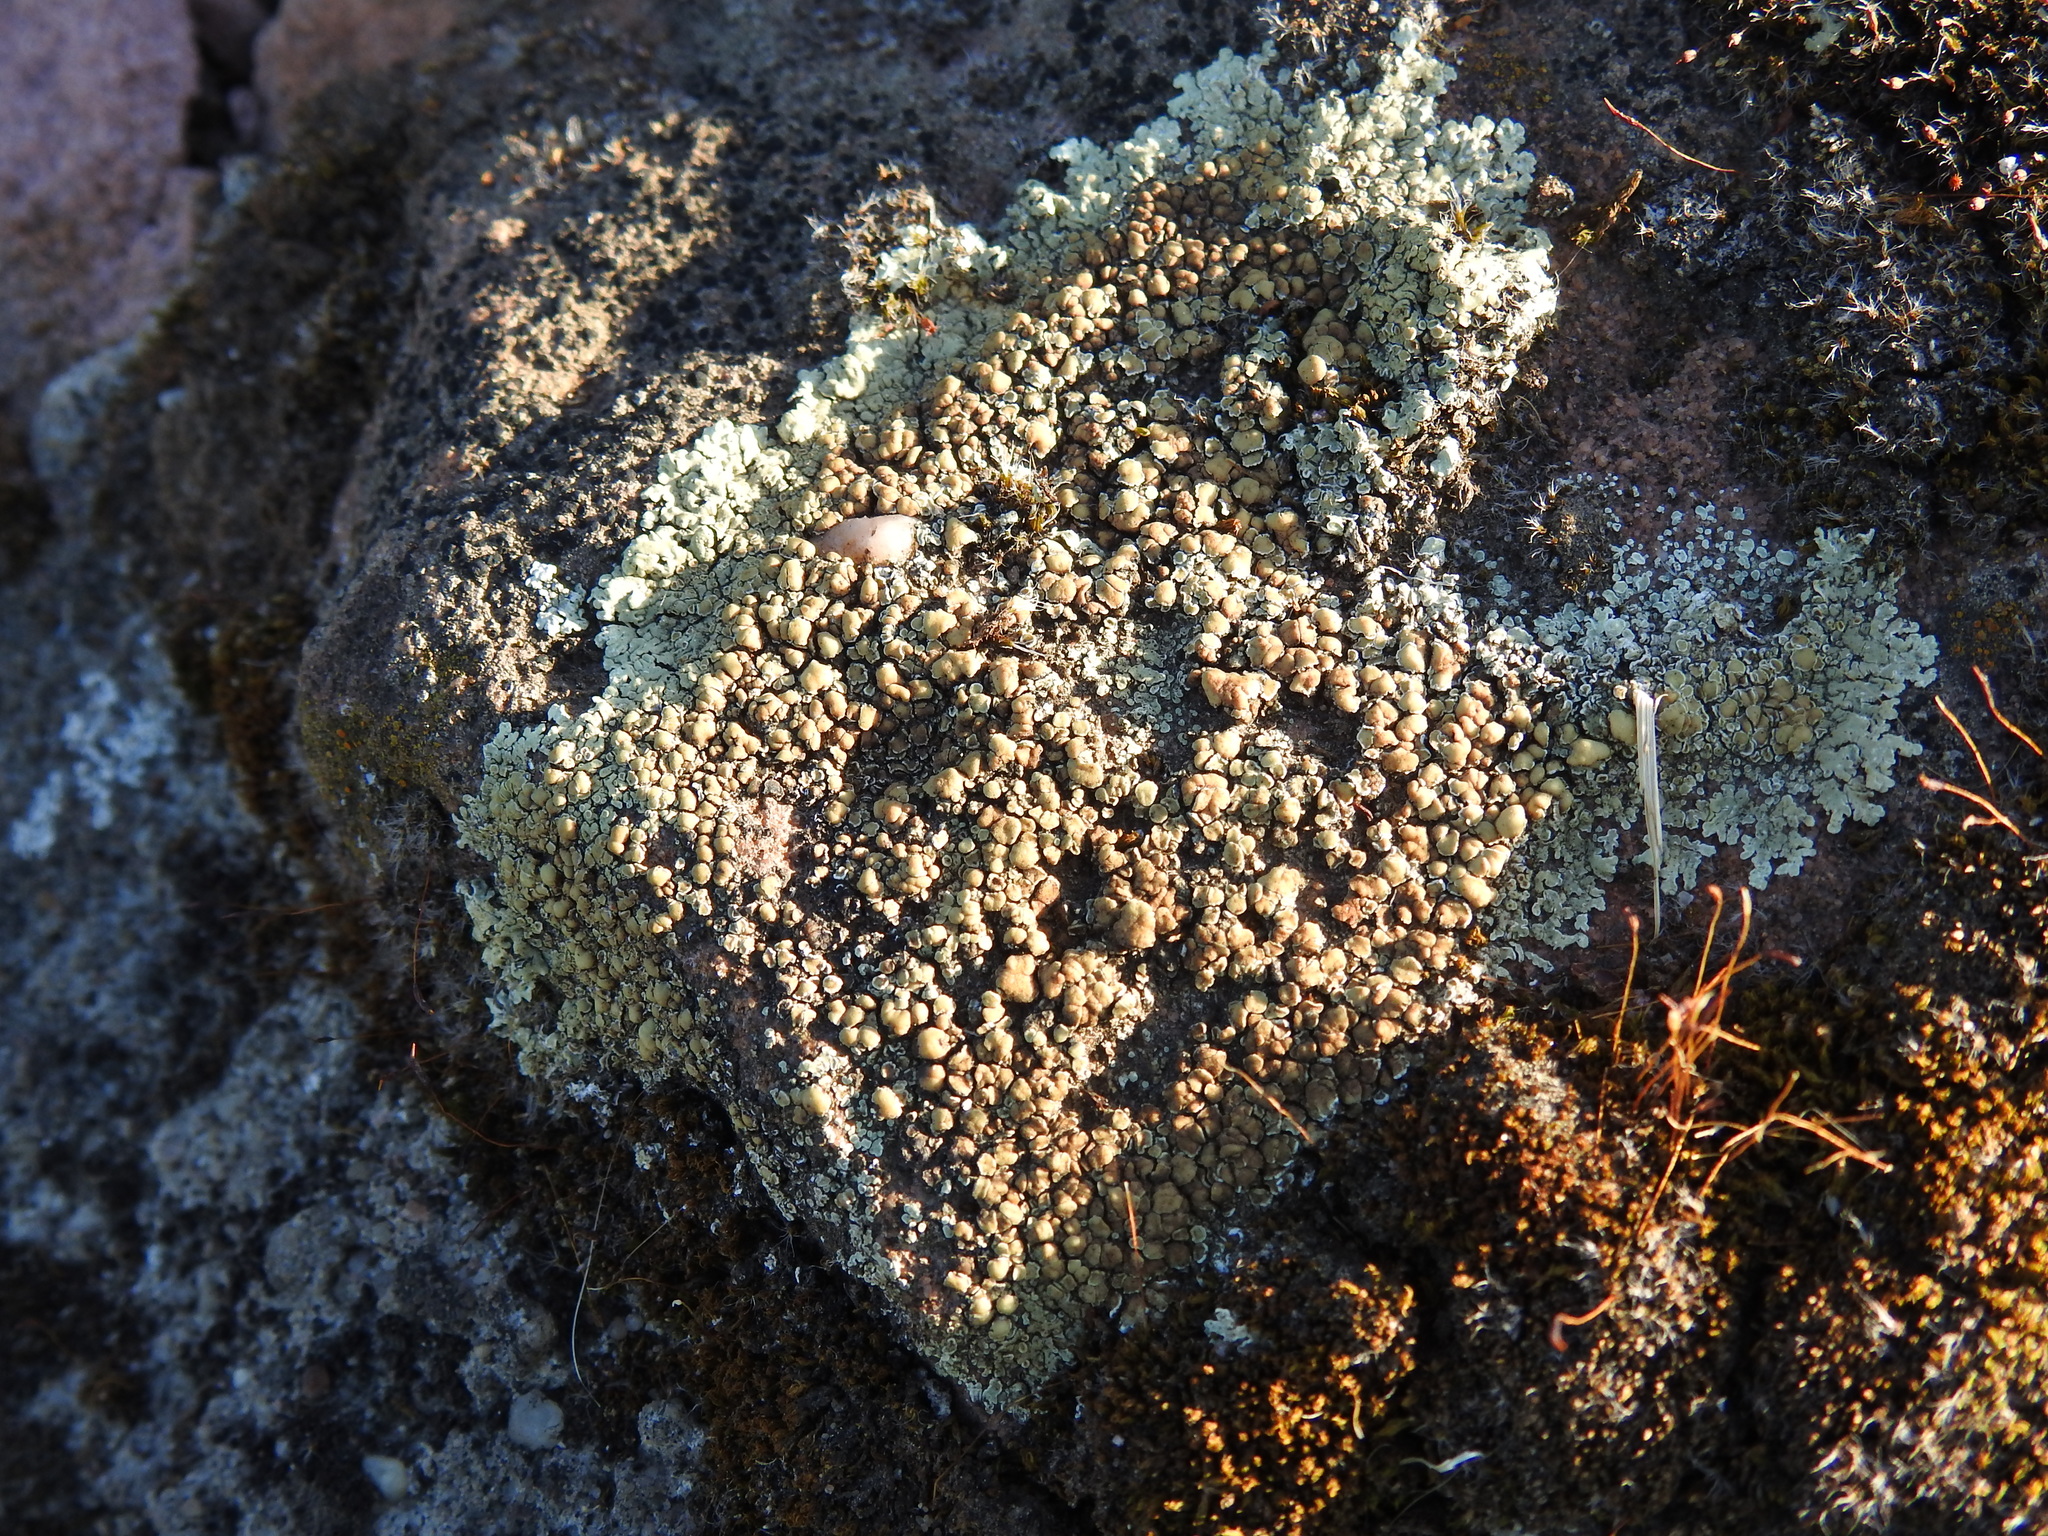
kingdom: Fungi
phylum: Ascomycota
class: Lecanoromycetes
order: Lecanorales
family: Lecanoraceae
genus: Protoparmeliopsis
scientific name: Protoparmeliopsis muralis
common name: Stonewall rim lichen
